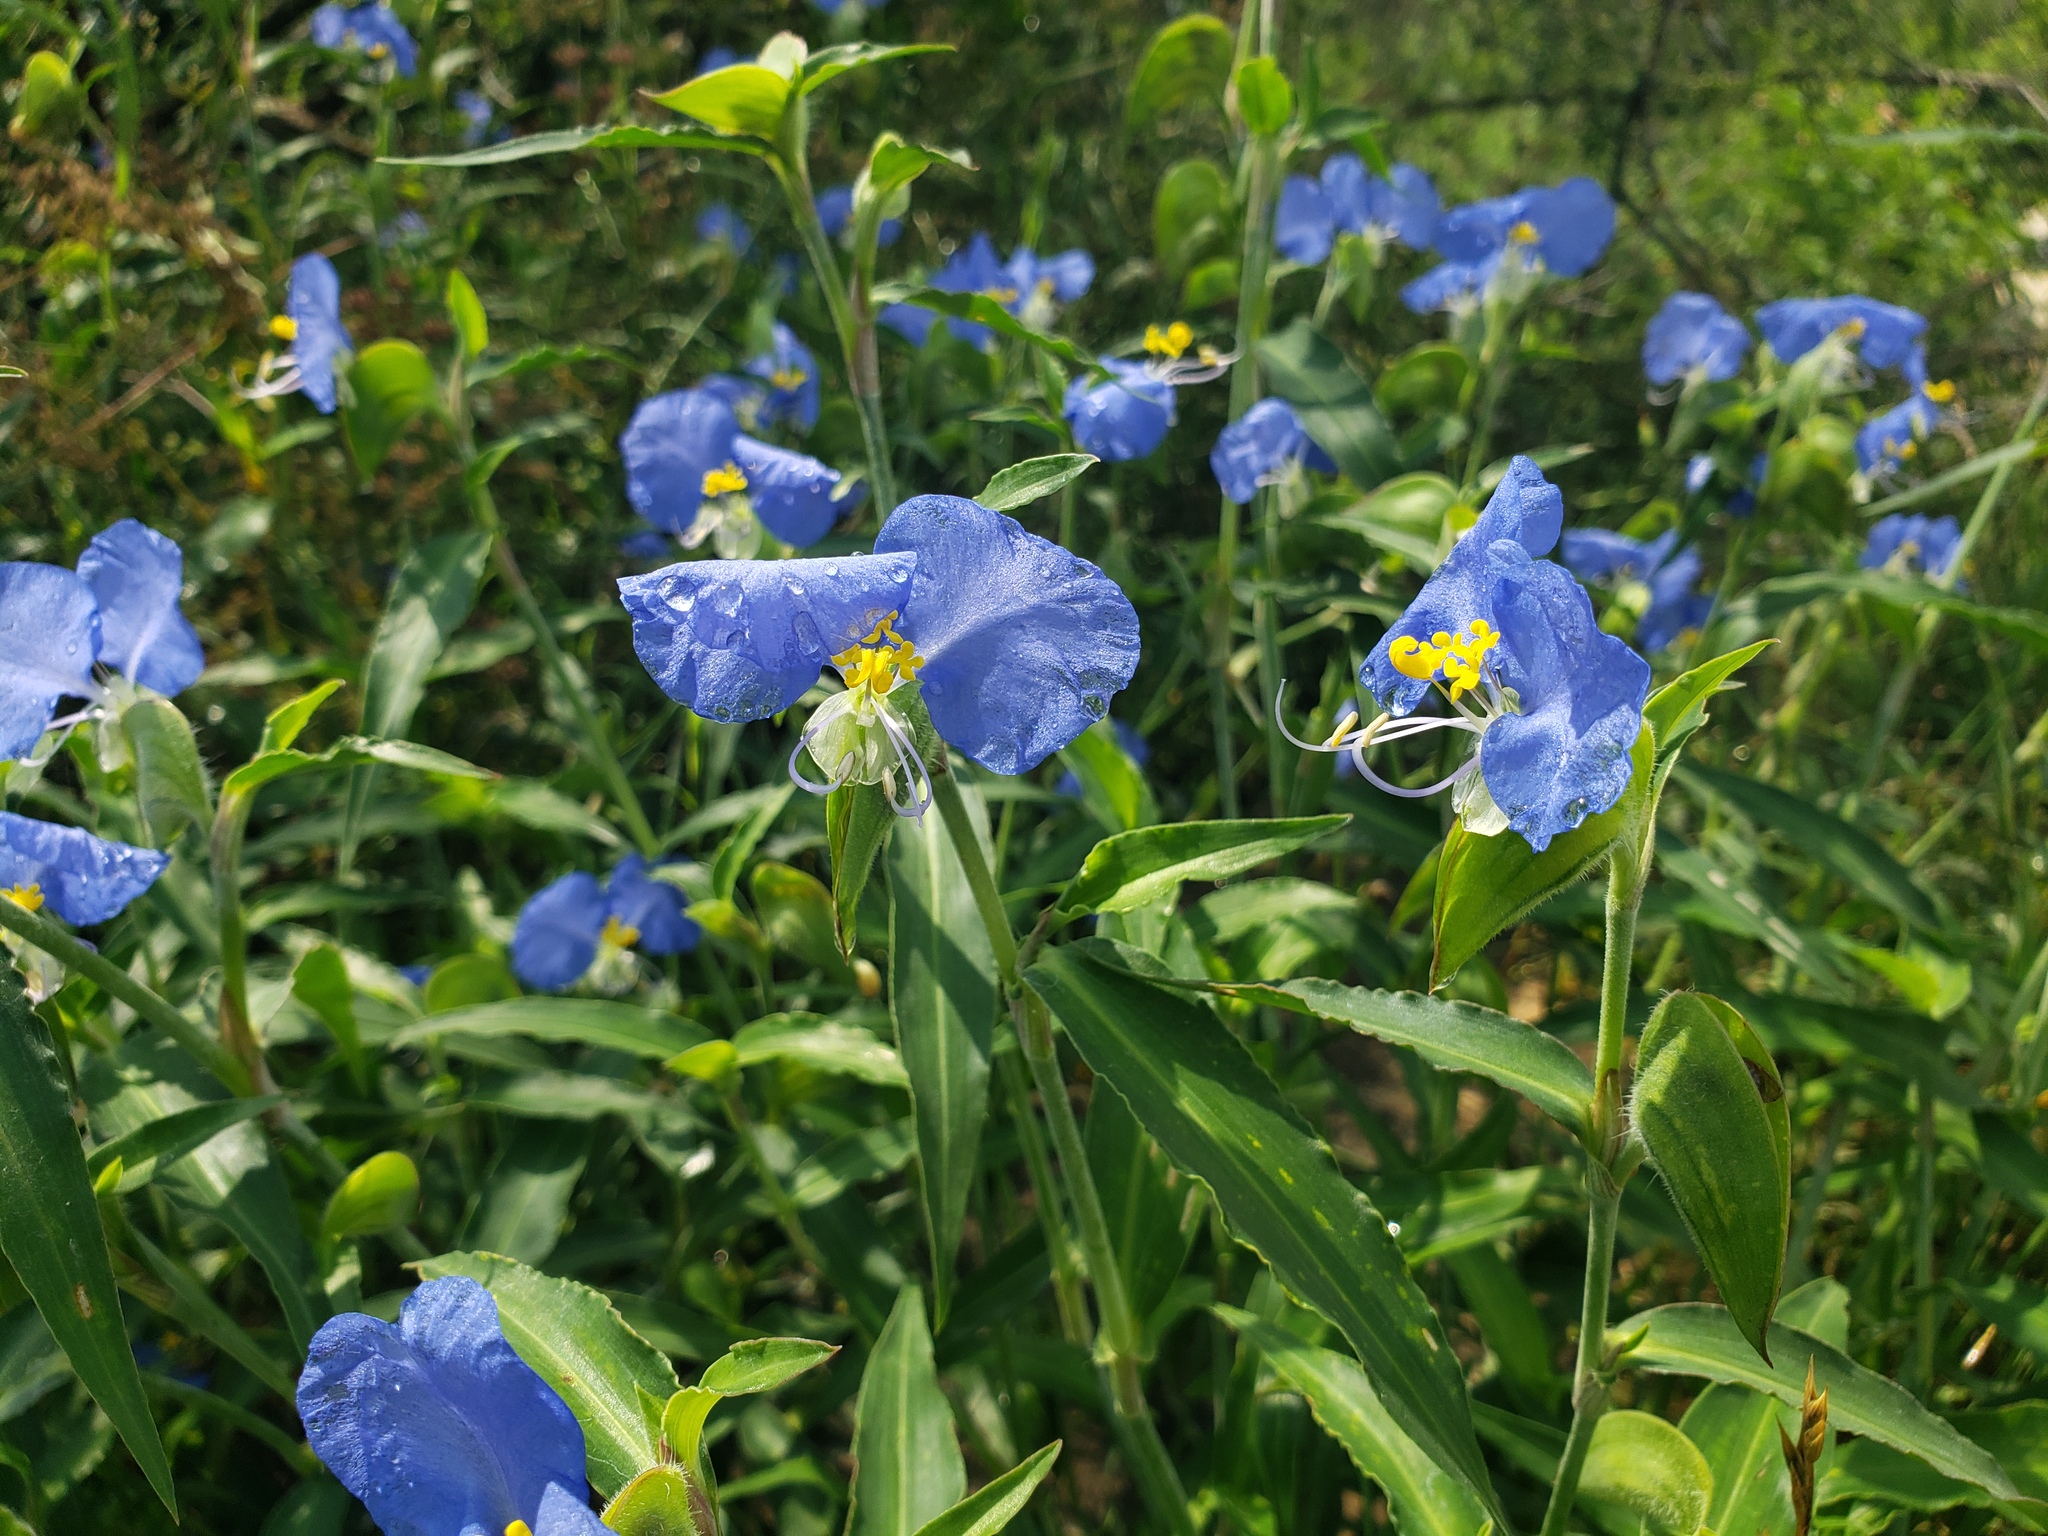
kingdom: Plantae
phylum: Tracheophyta
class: Liliopsida
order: Commelinales
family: Commelinaceae
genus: Commelina
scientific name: Commelina erecta
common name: Blousel blommetjie
